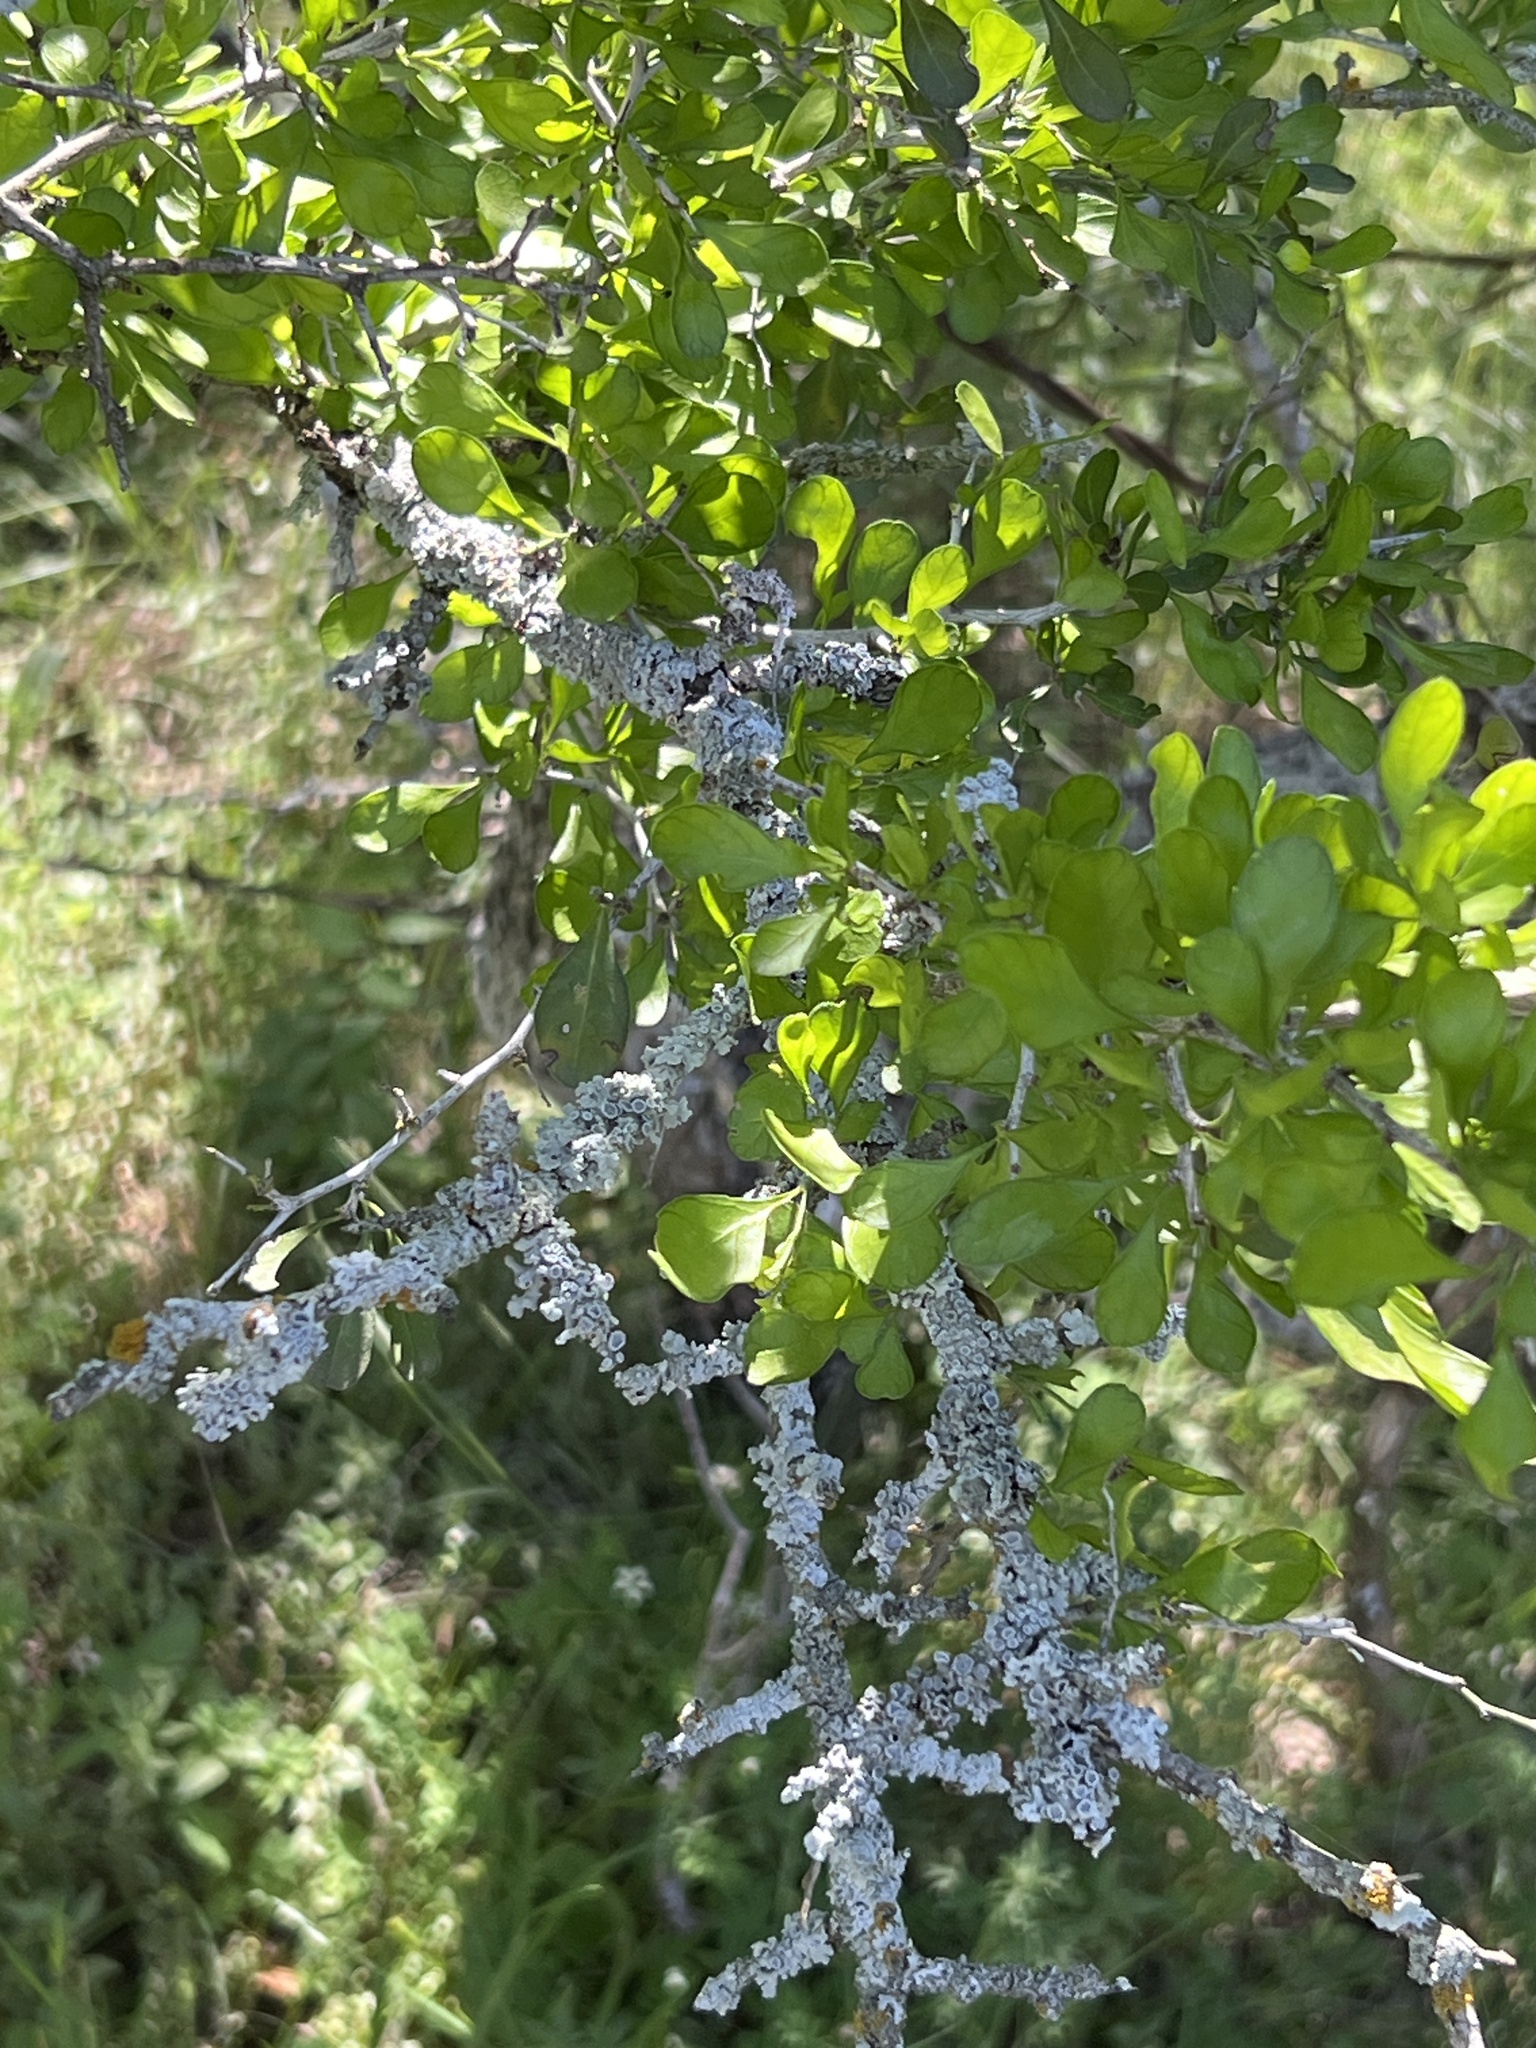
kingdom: Plantae
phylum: Tracheophyta
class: Magnoliopsida
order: Rosales
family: Rhamnaceae
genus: Condalia
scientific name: Condalia hookeri
